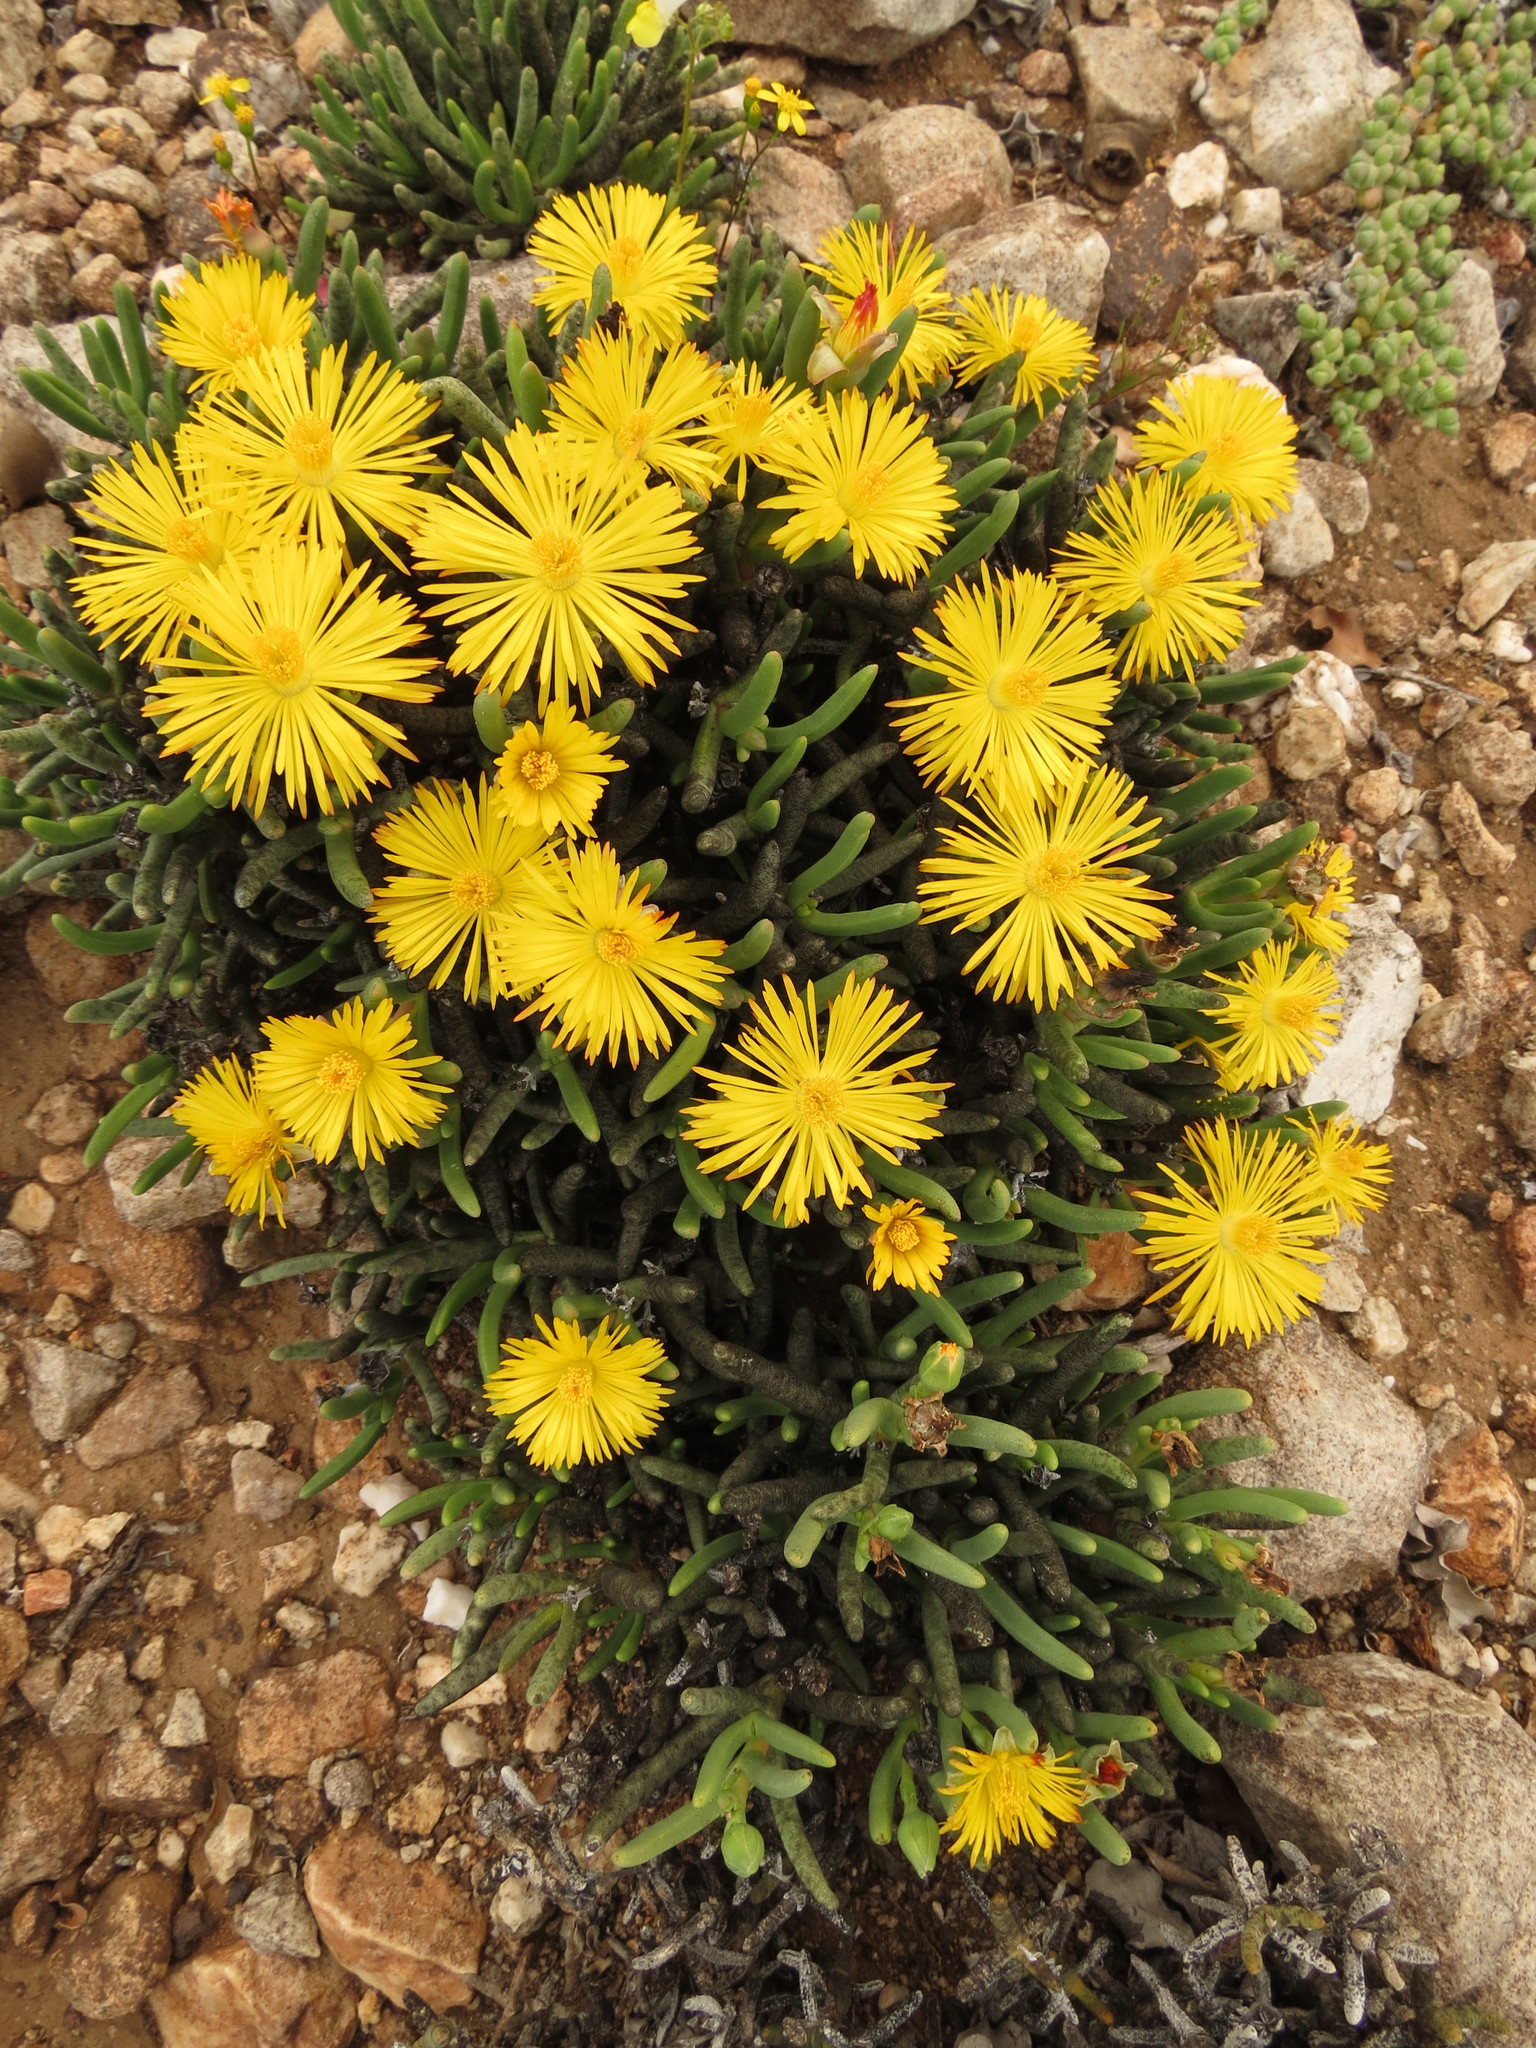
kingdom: Plantae
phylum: Tracheophyta
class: Magnoliopsida
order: Caryophyllales
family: Aizoaceae
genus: Dracophilus
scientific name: Dracophilus Hereroa gracilis
